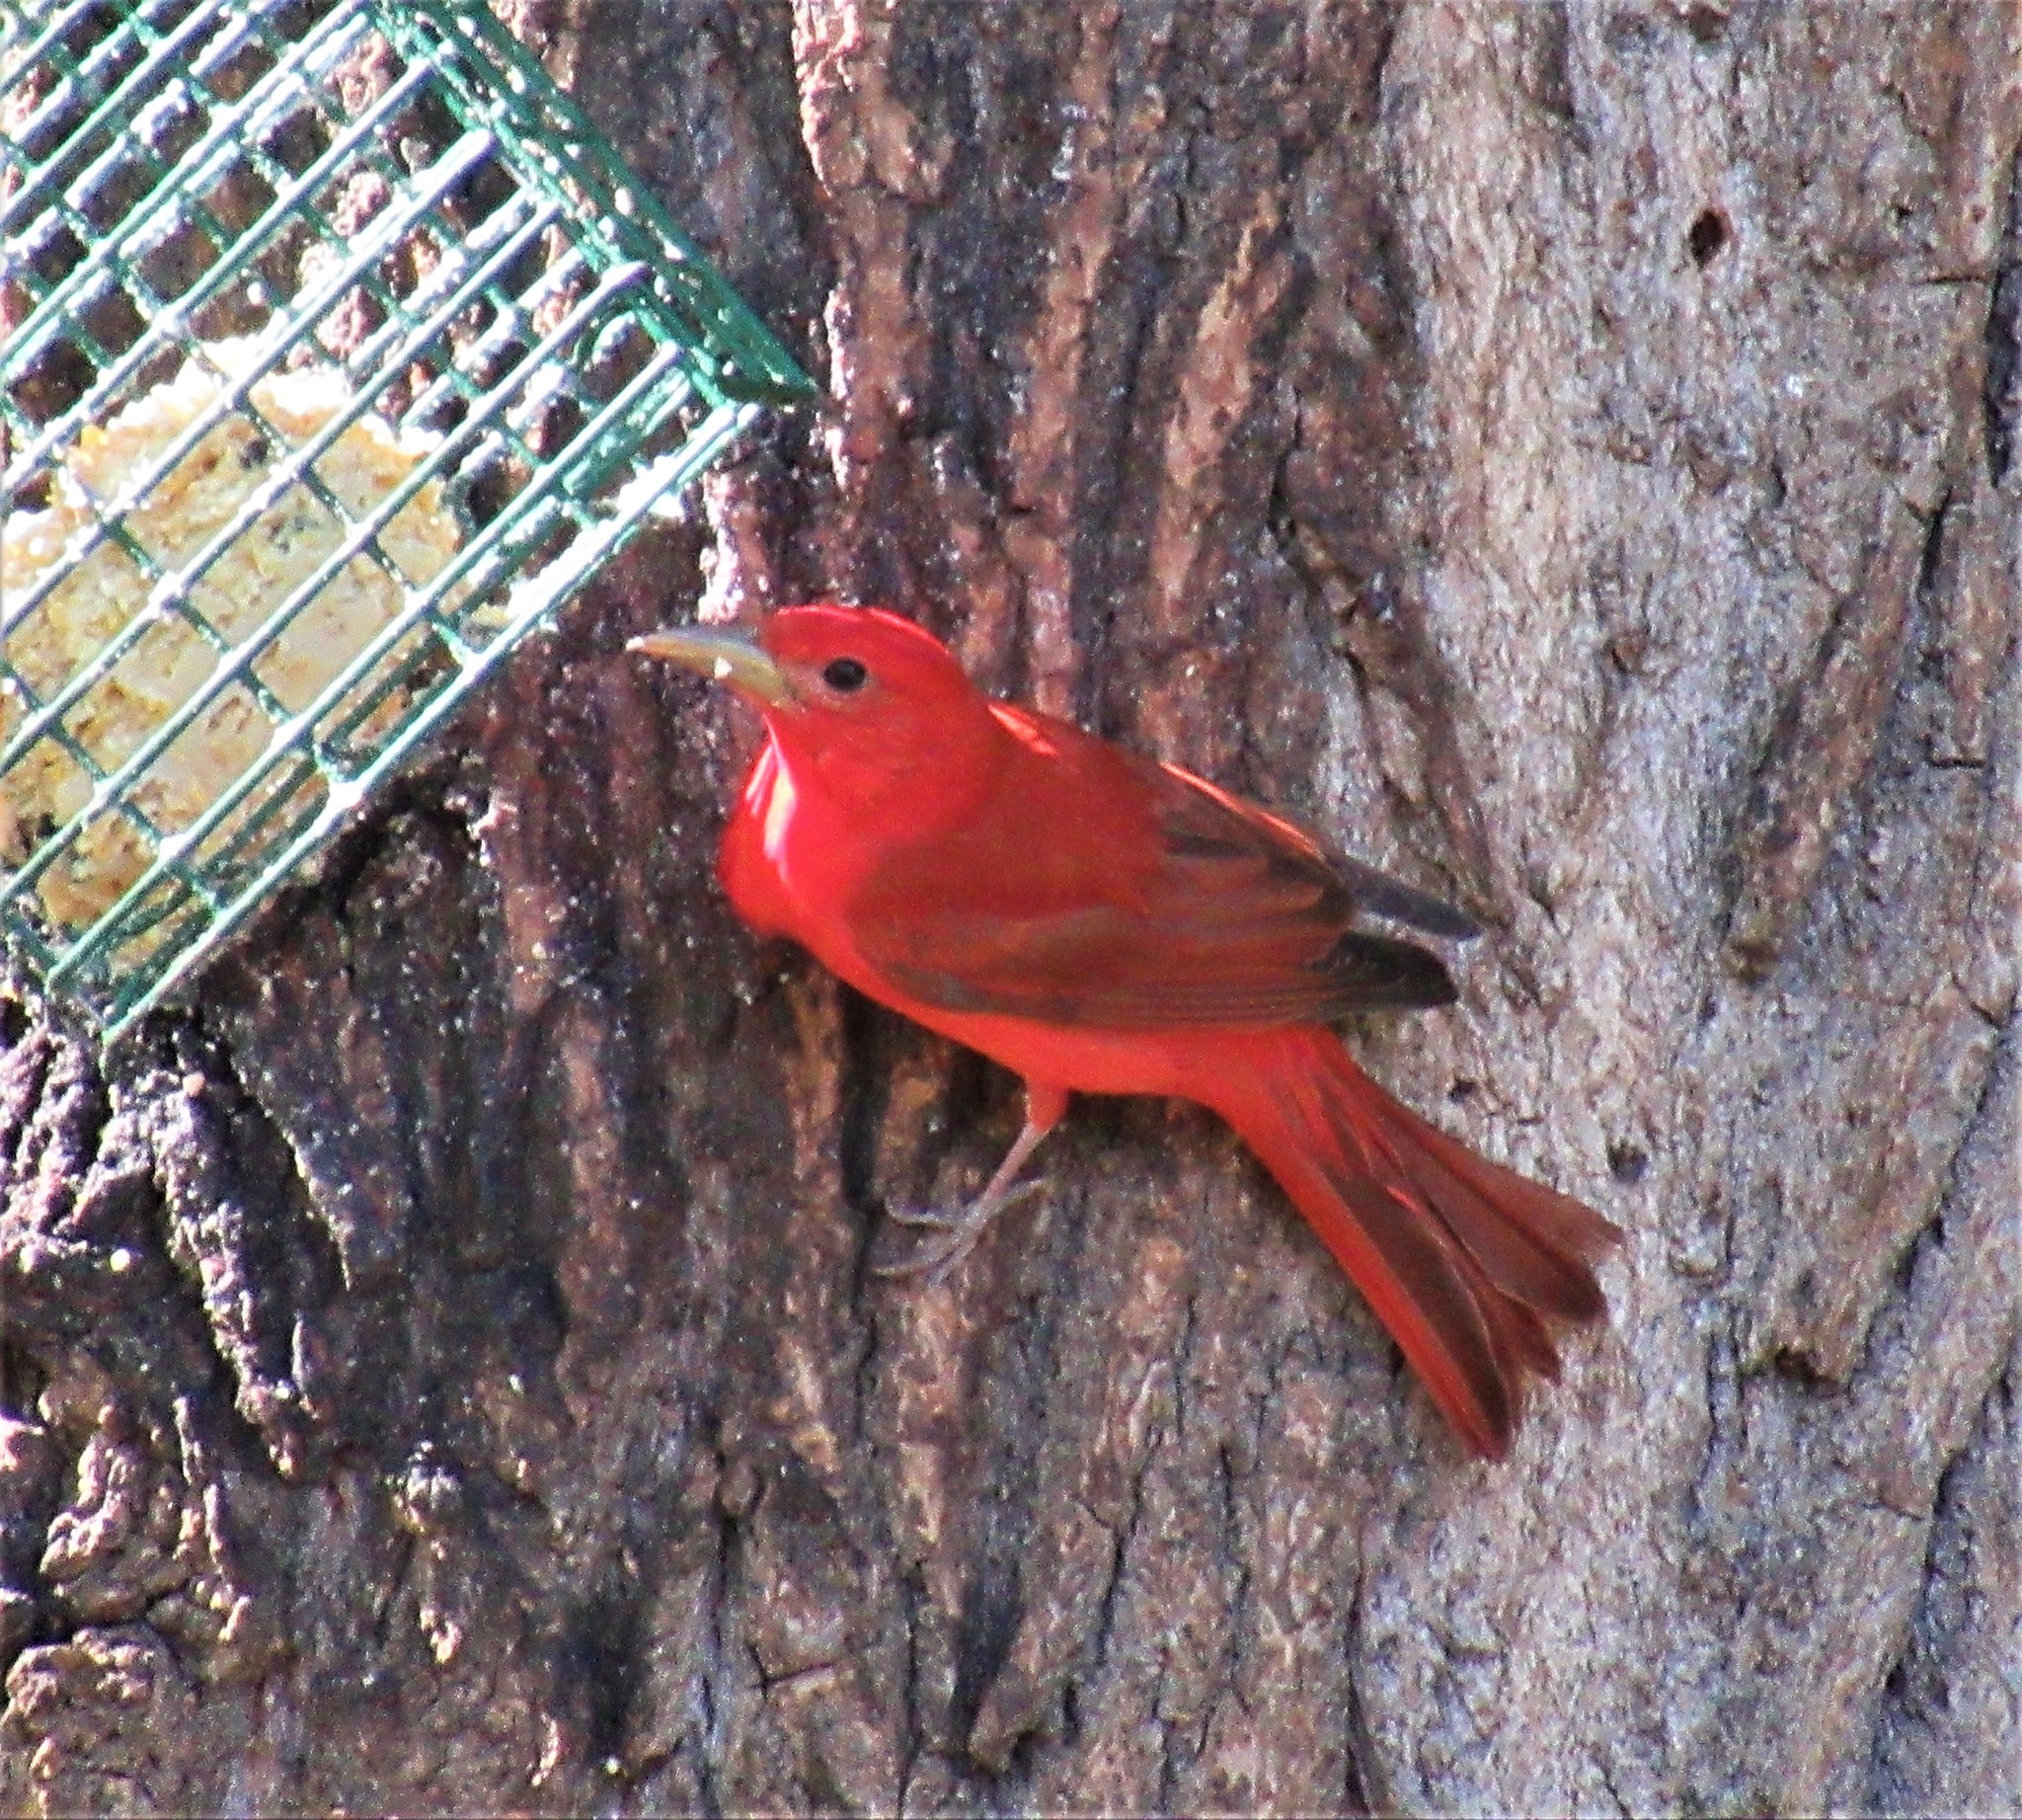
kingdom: Animalia
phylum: Chordata
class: Aves
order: Passeriformes
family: Cardinalidae
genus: Piranga
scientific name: Piranga rubra
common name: Summer tanager
